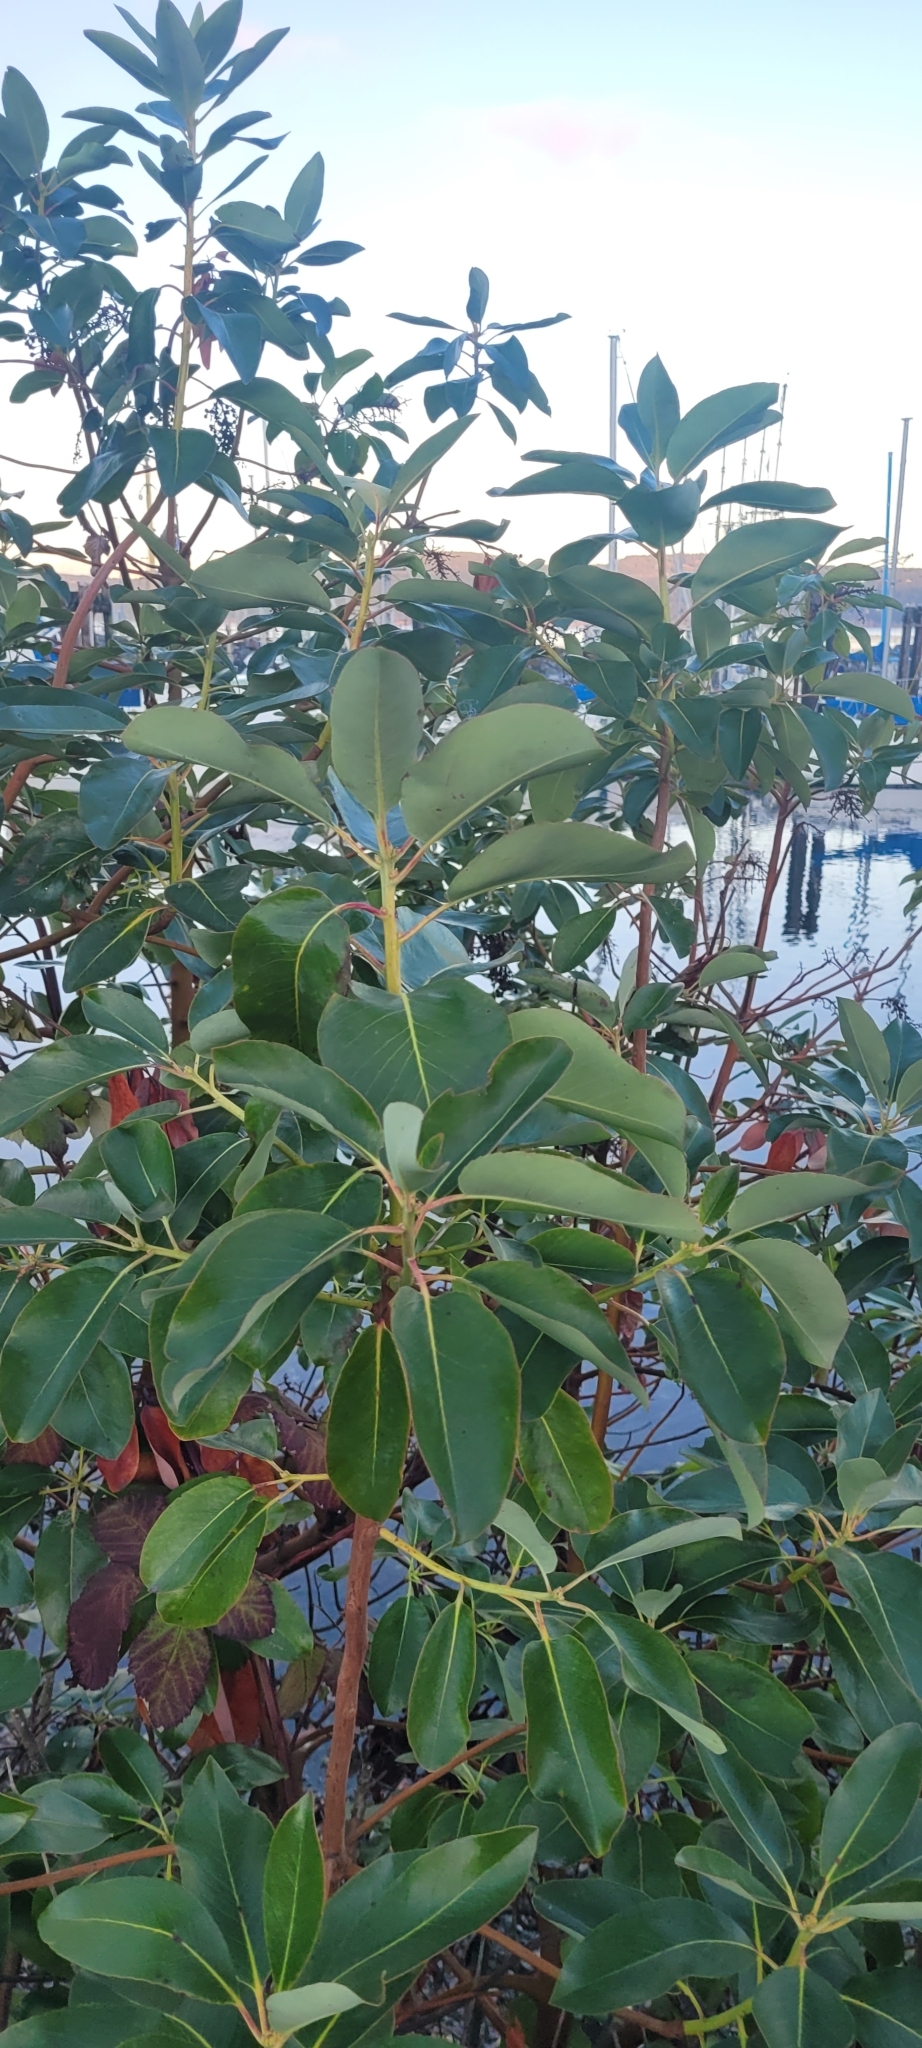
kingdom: Plantae
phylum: Tracheophyta
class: Magnoliopsida
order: Ericales
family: Ericaceae
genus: Arbutus
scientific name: Arbutus menziesii
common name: Pacific madrone
